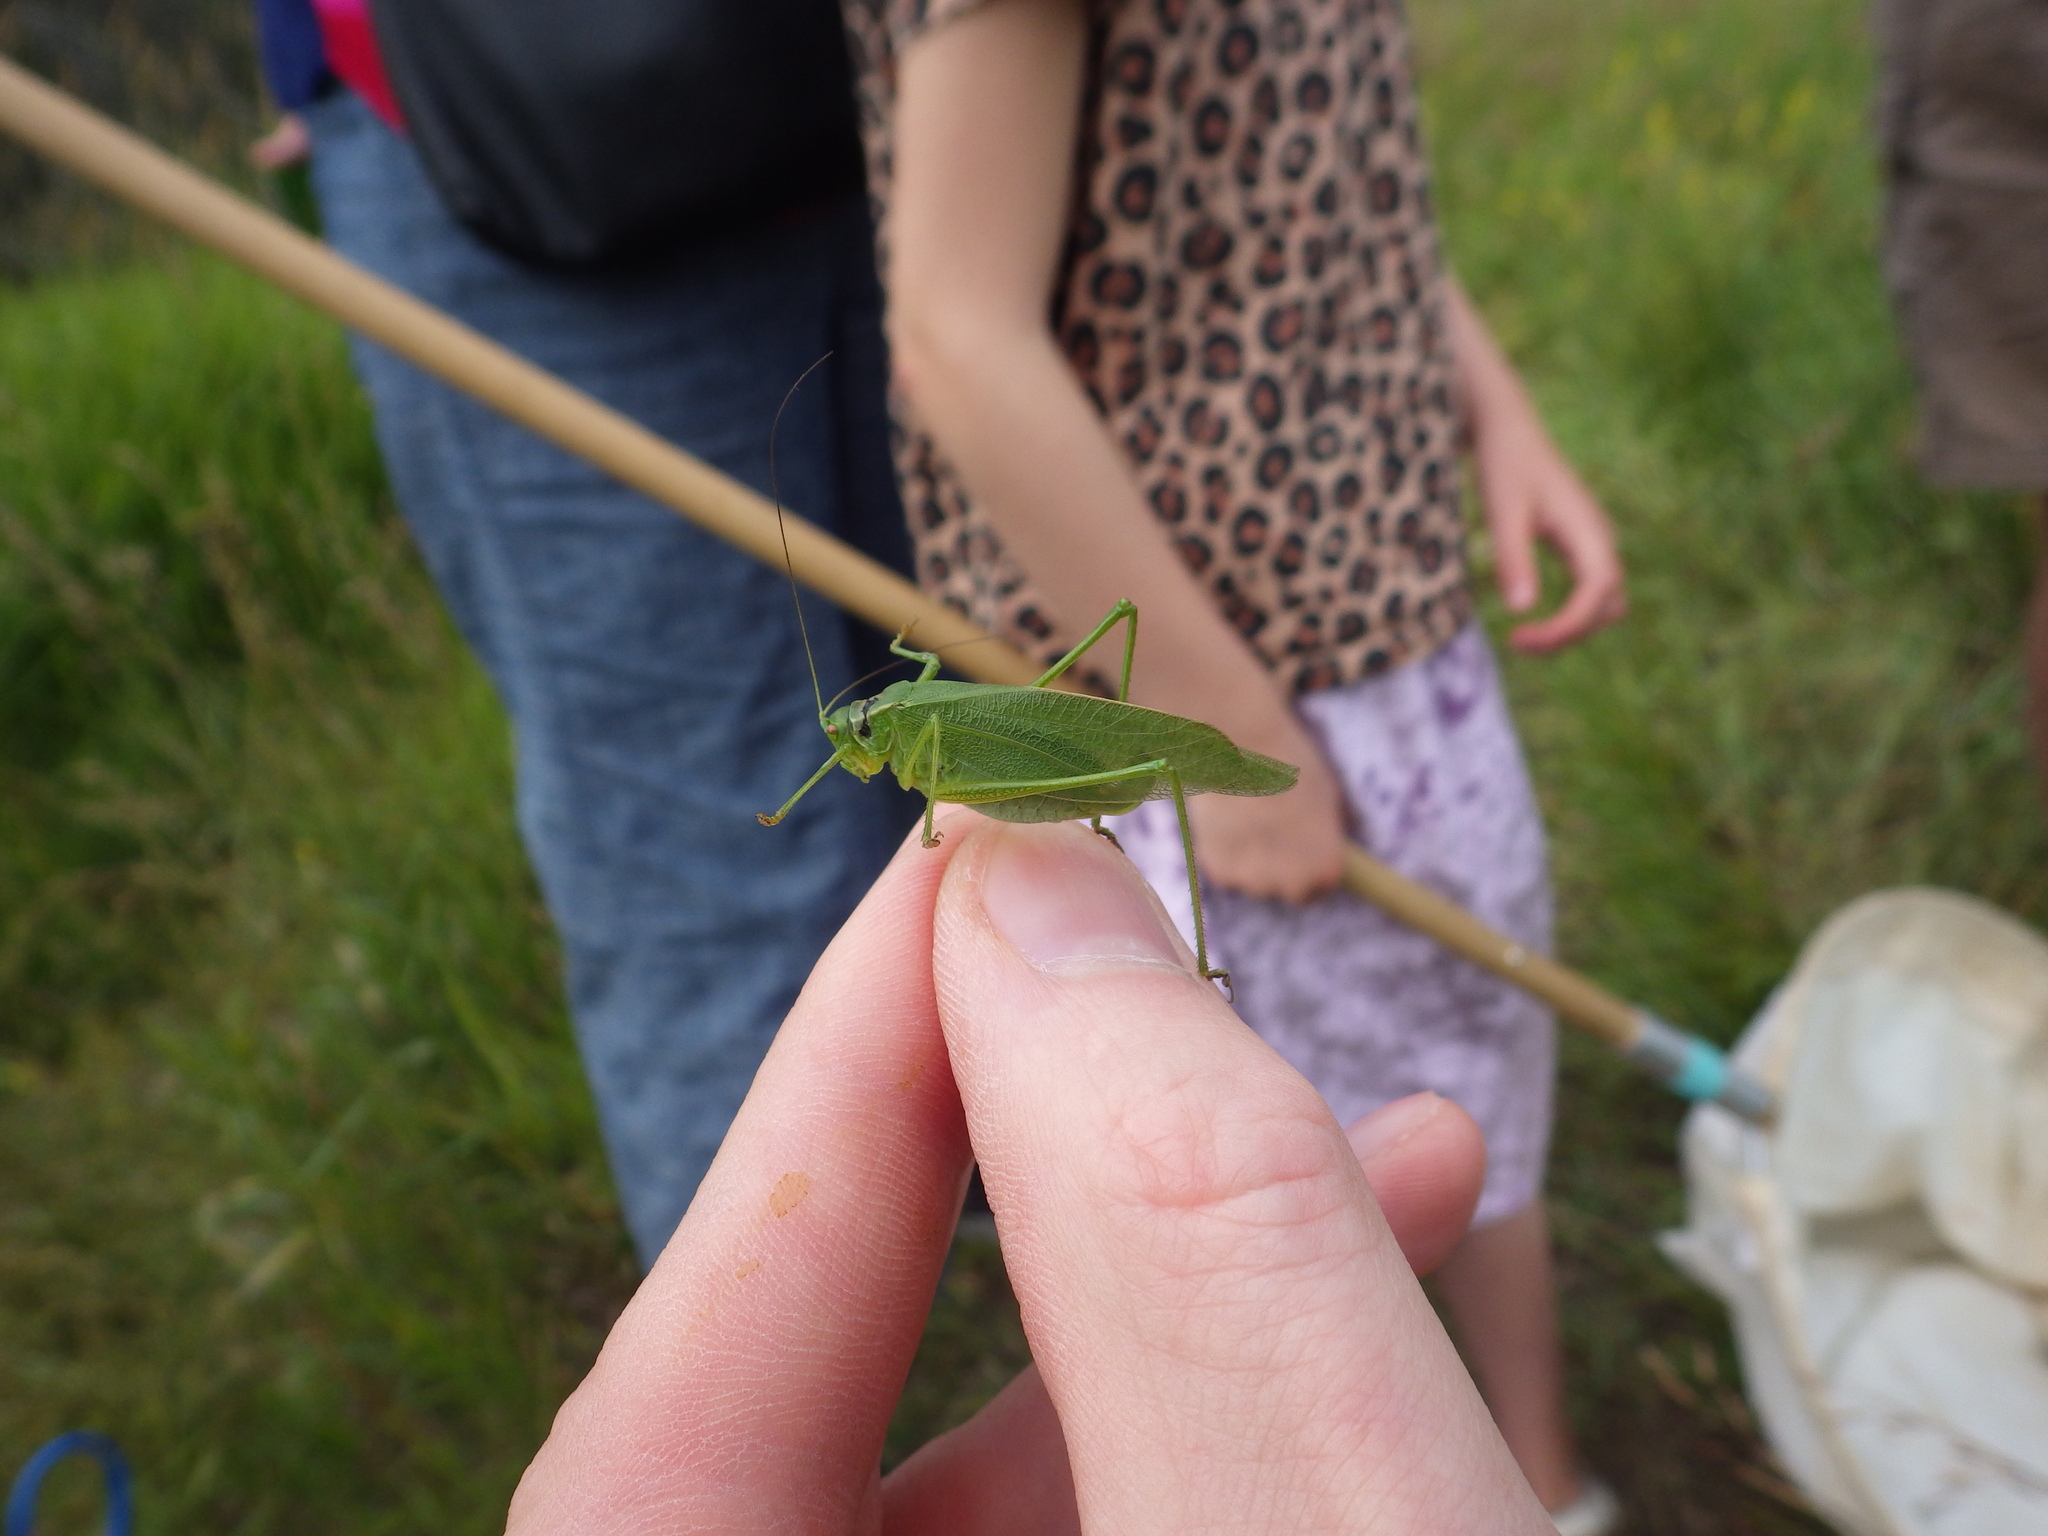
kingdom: Animalia
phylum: Arthropoda
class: Insecta
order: Orthoptera
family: Tettigoniidae
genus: Scudderia
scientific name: Scudderia pistillata
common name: Broad-winged bush-katydid
